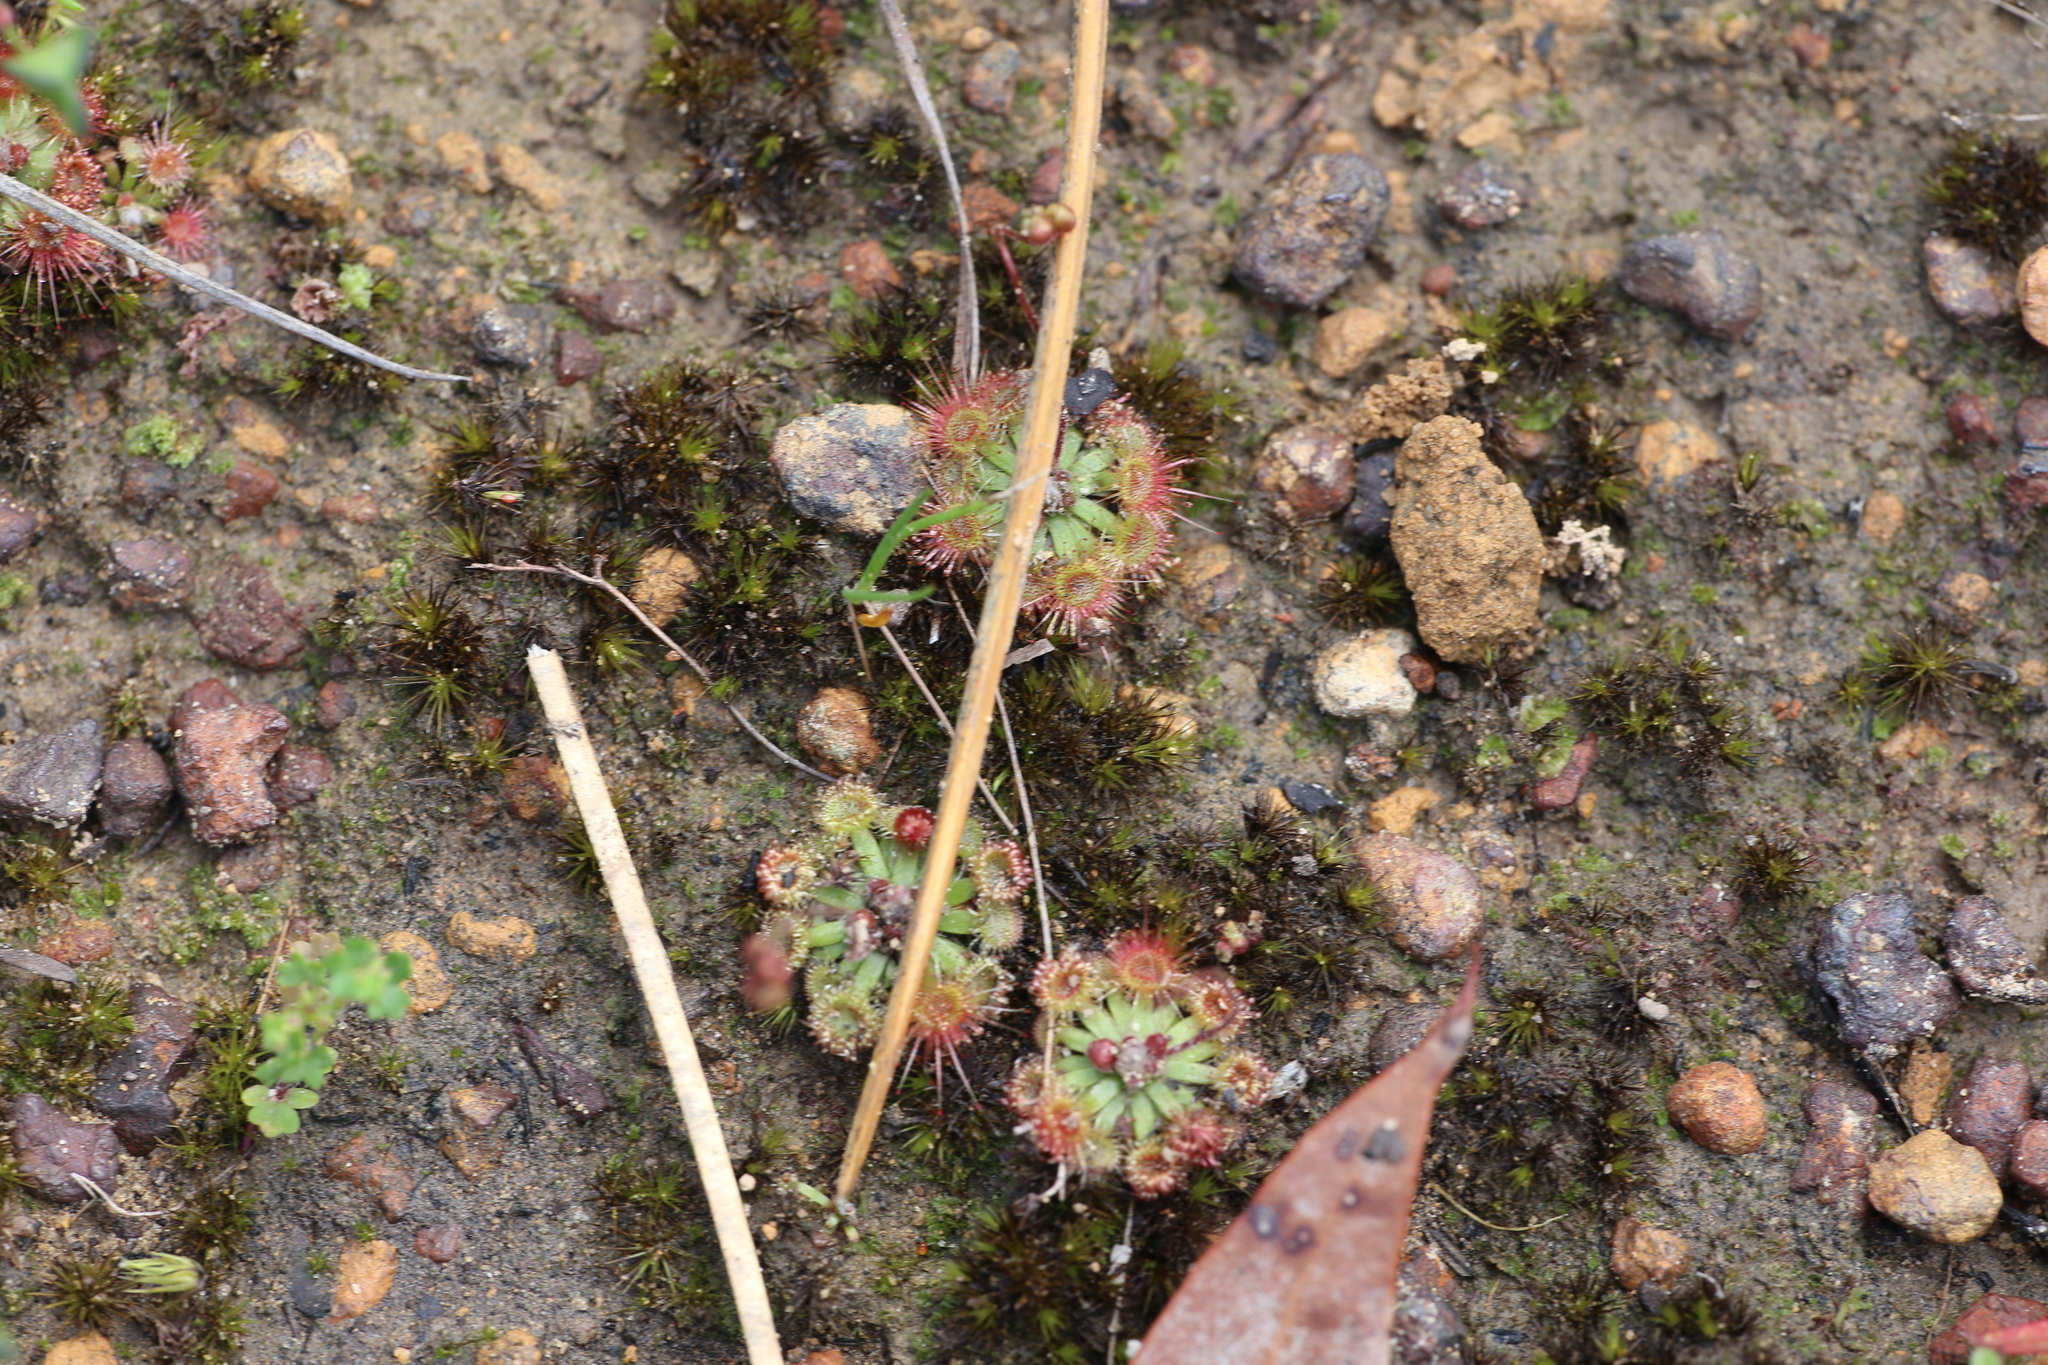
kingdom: Plantae
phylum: Tracheophyta
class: Magnoliopsida
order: Caryophyllales
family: Droseraceae
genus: Drosera
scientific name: Drosera pulchella
